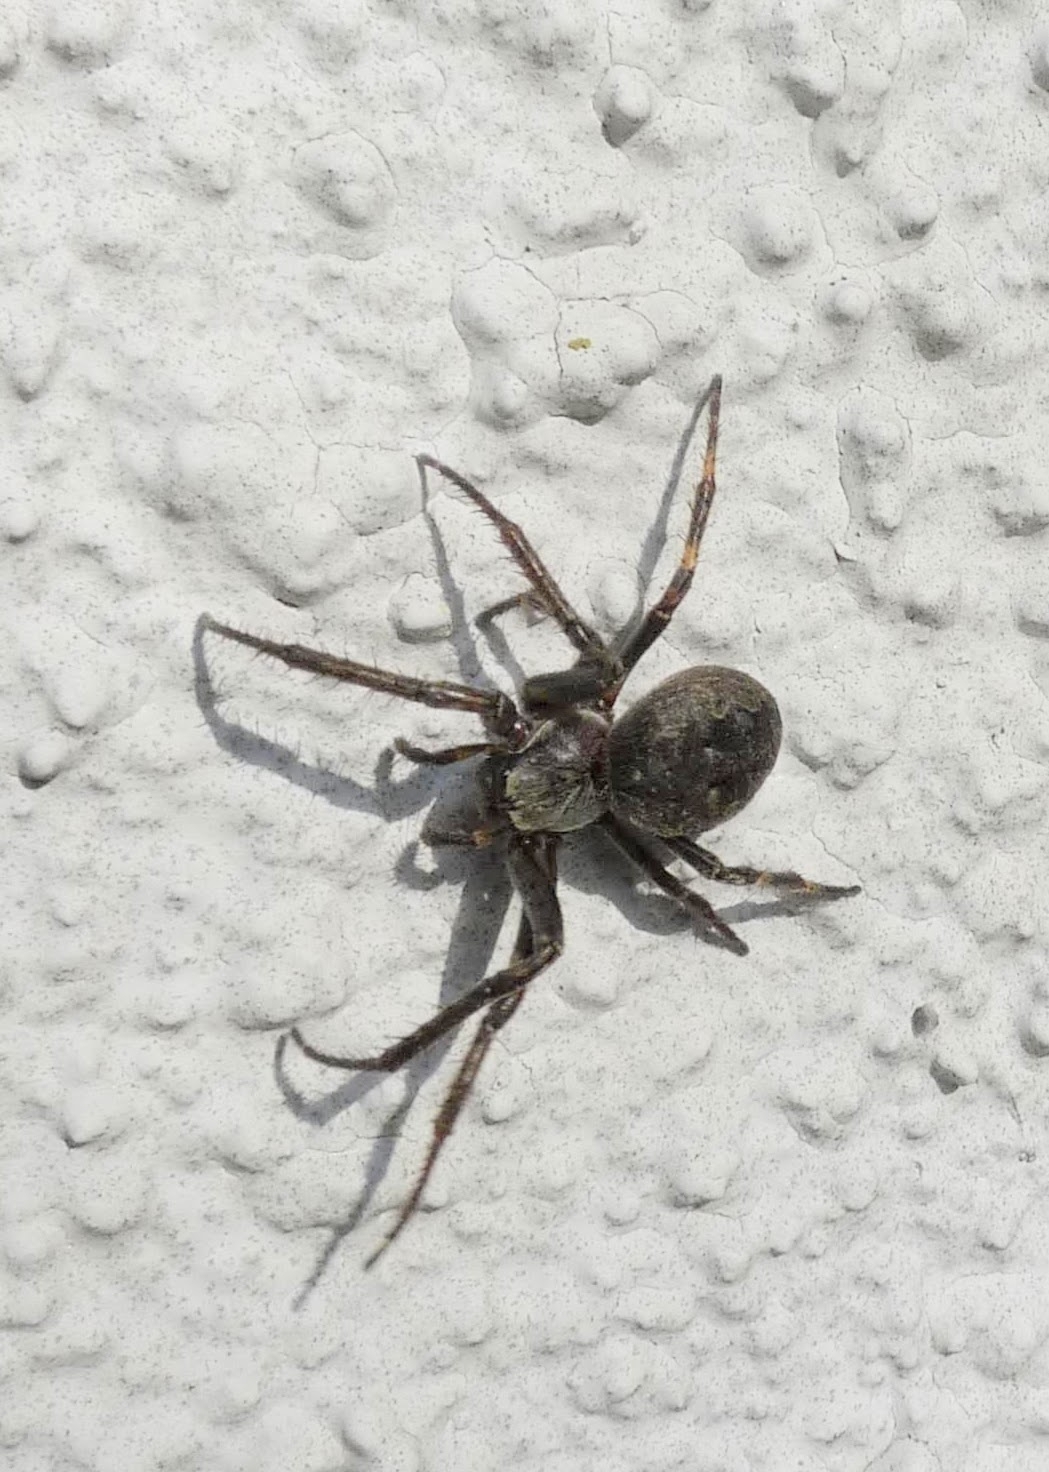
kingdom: Animalia
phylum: Arthropoda
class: Arachnida
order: Araneae
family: Araneidae
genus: Larinioides
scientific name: Larinioides ixobolus
